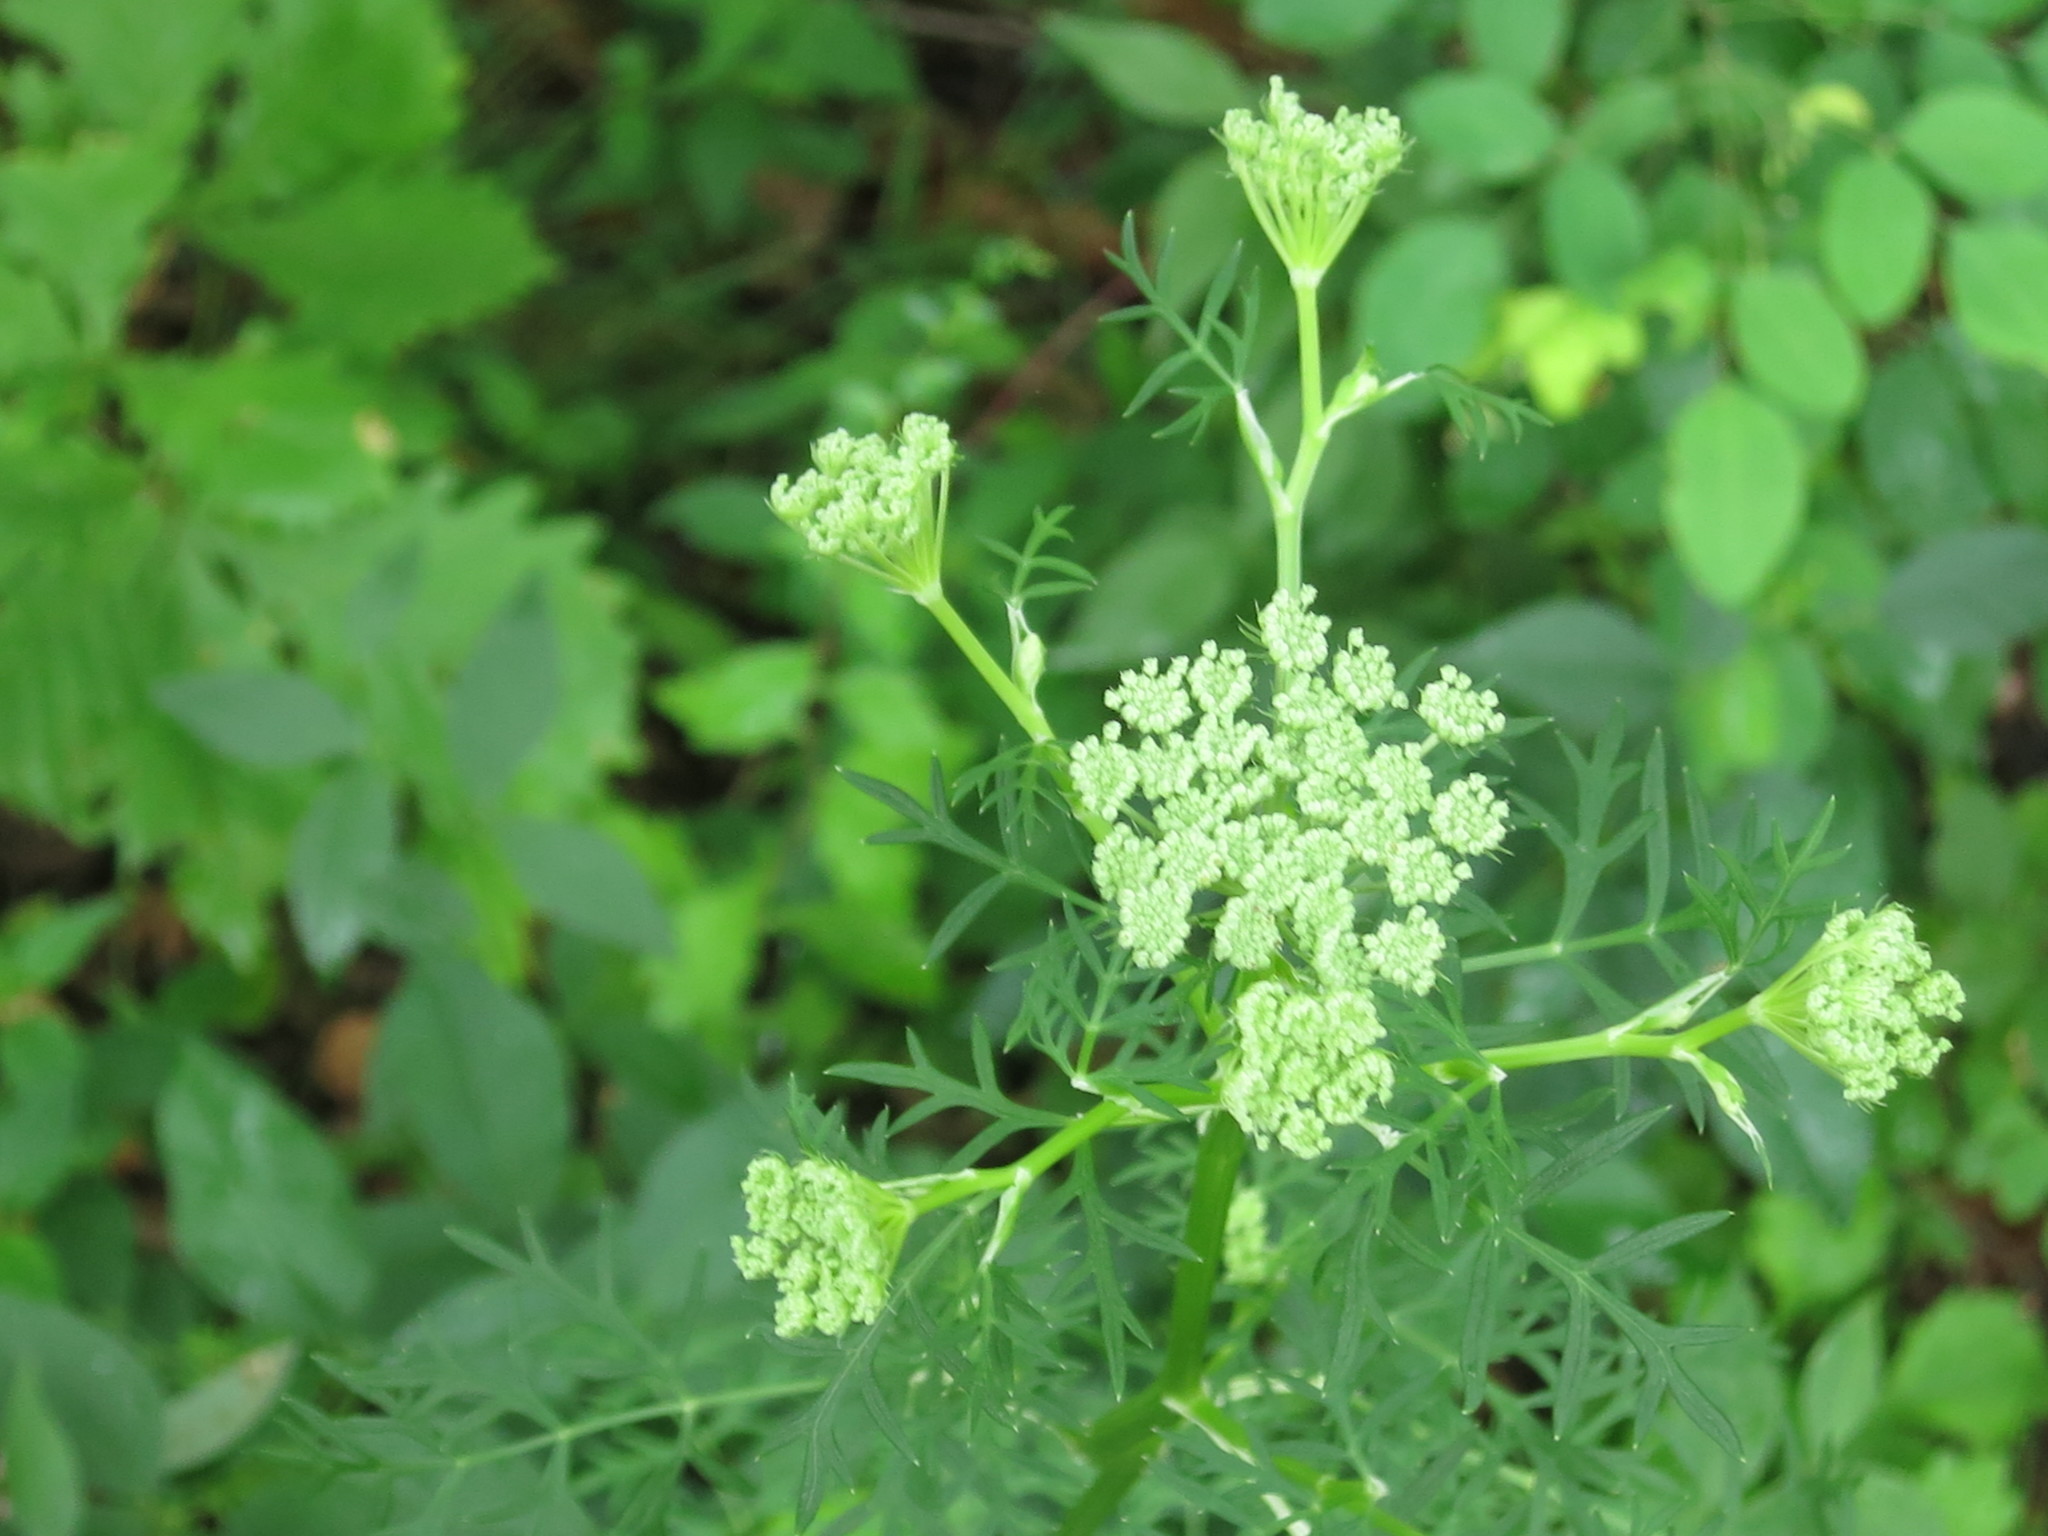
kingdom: Plantae
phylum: Tracheophyta
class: Magnoliopsida
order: Apiales
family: Apiaceae
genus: Seseli
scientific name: Seseli seseloides
